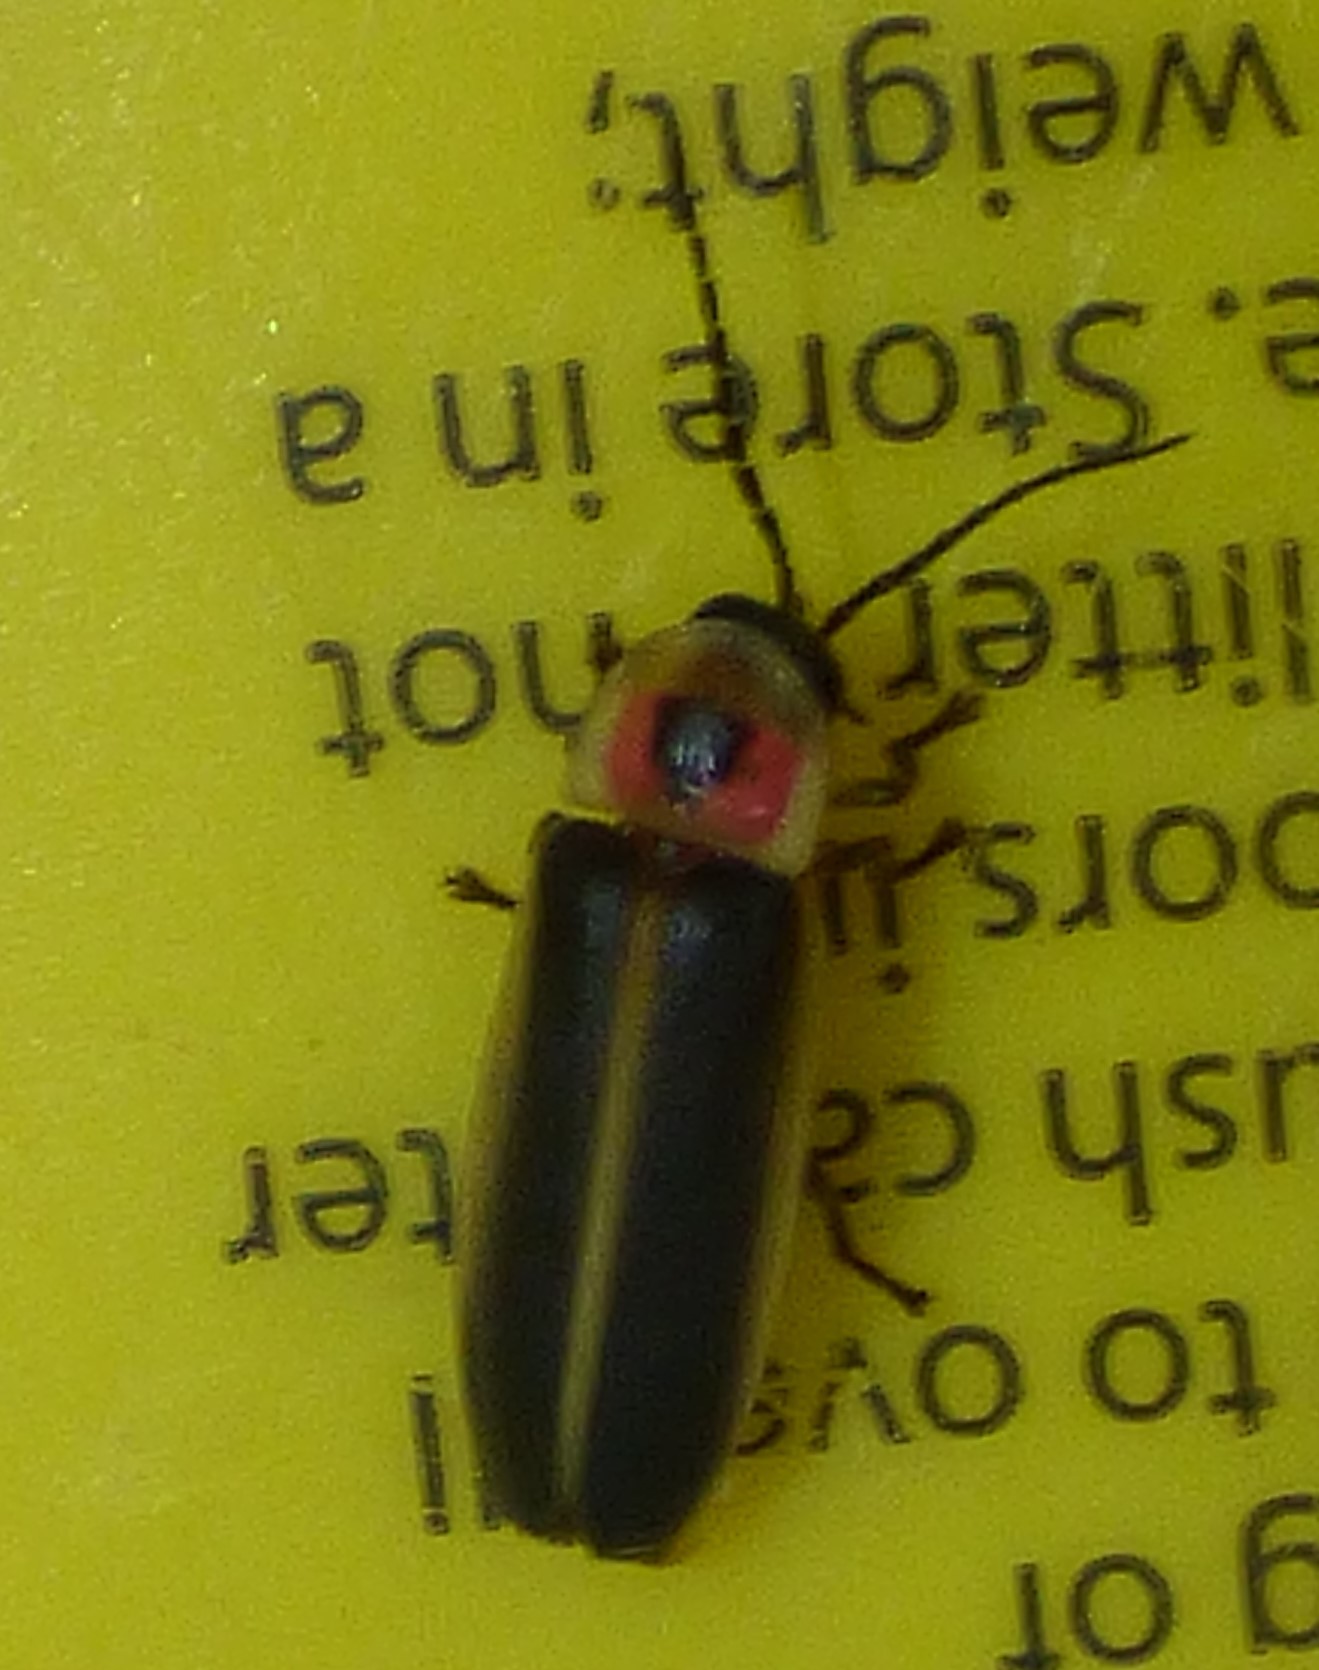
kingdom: Animalia
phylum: Arthropoda
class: Insecta
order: Coleoptera
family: Lampyridae
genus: Photinus
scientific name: Photinus pyralis
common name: Big dipper firefly
